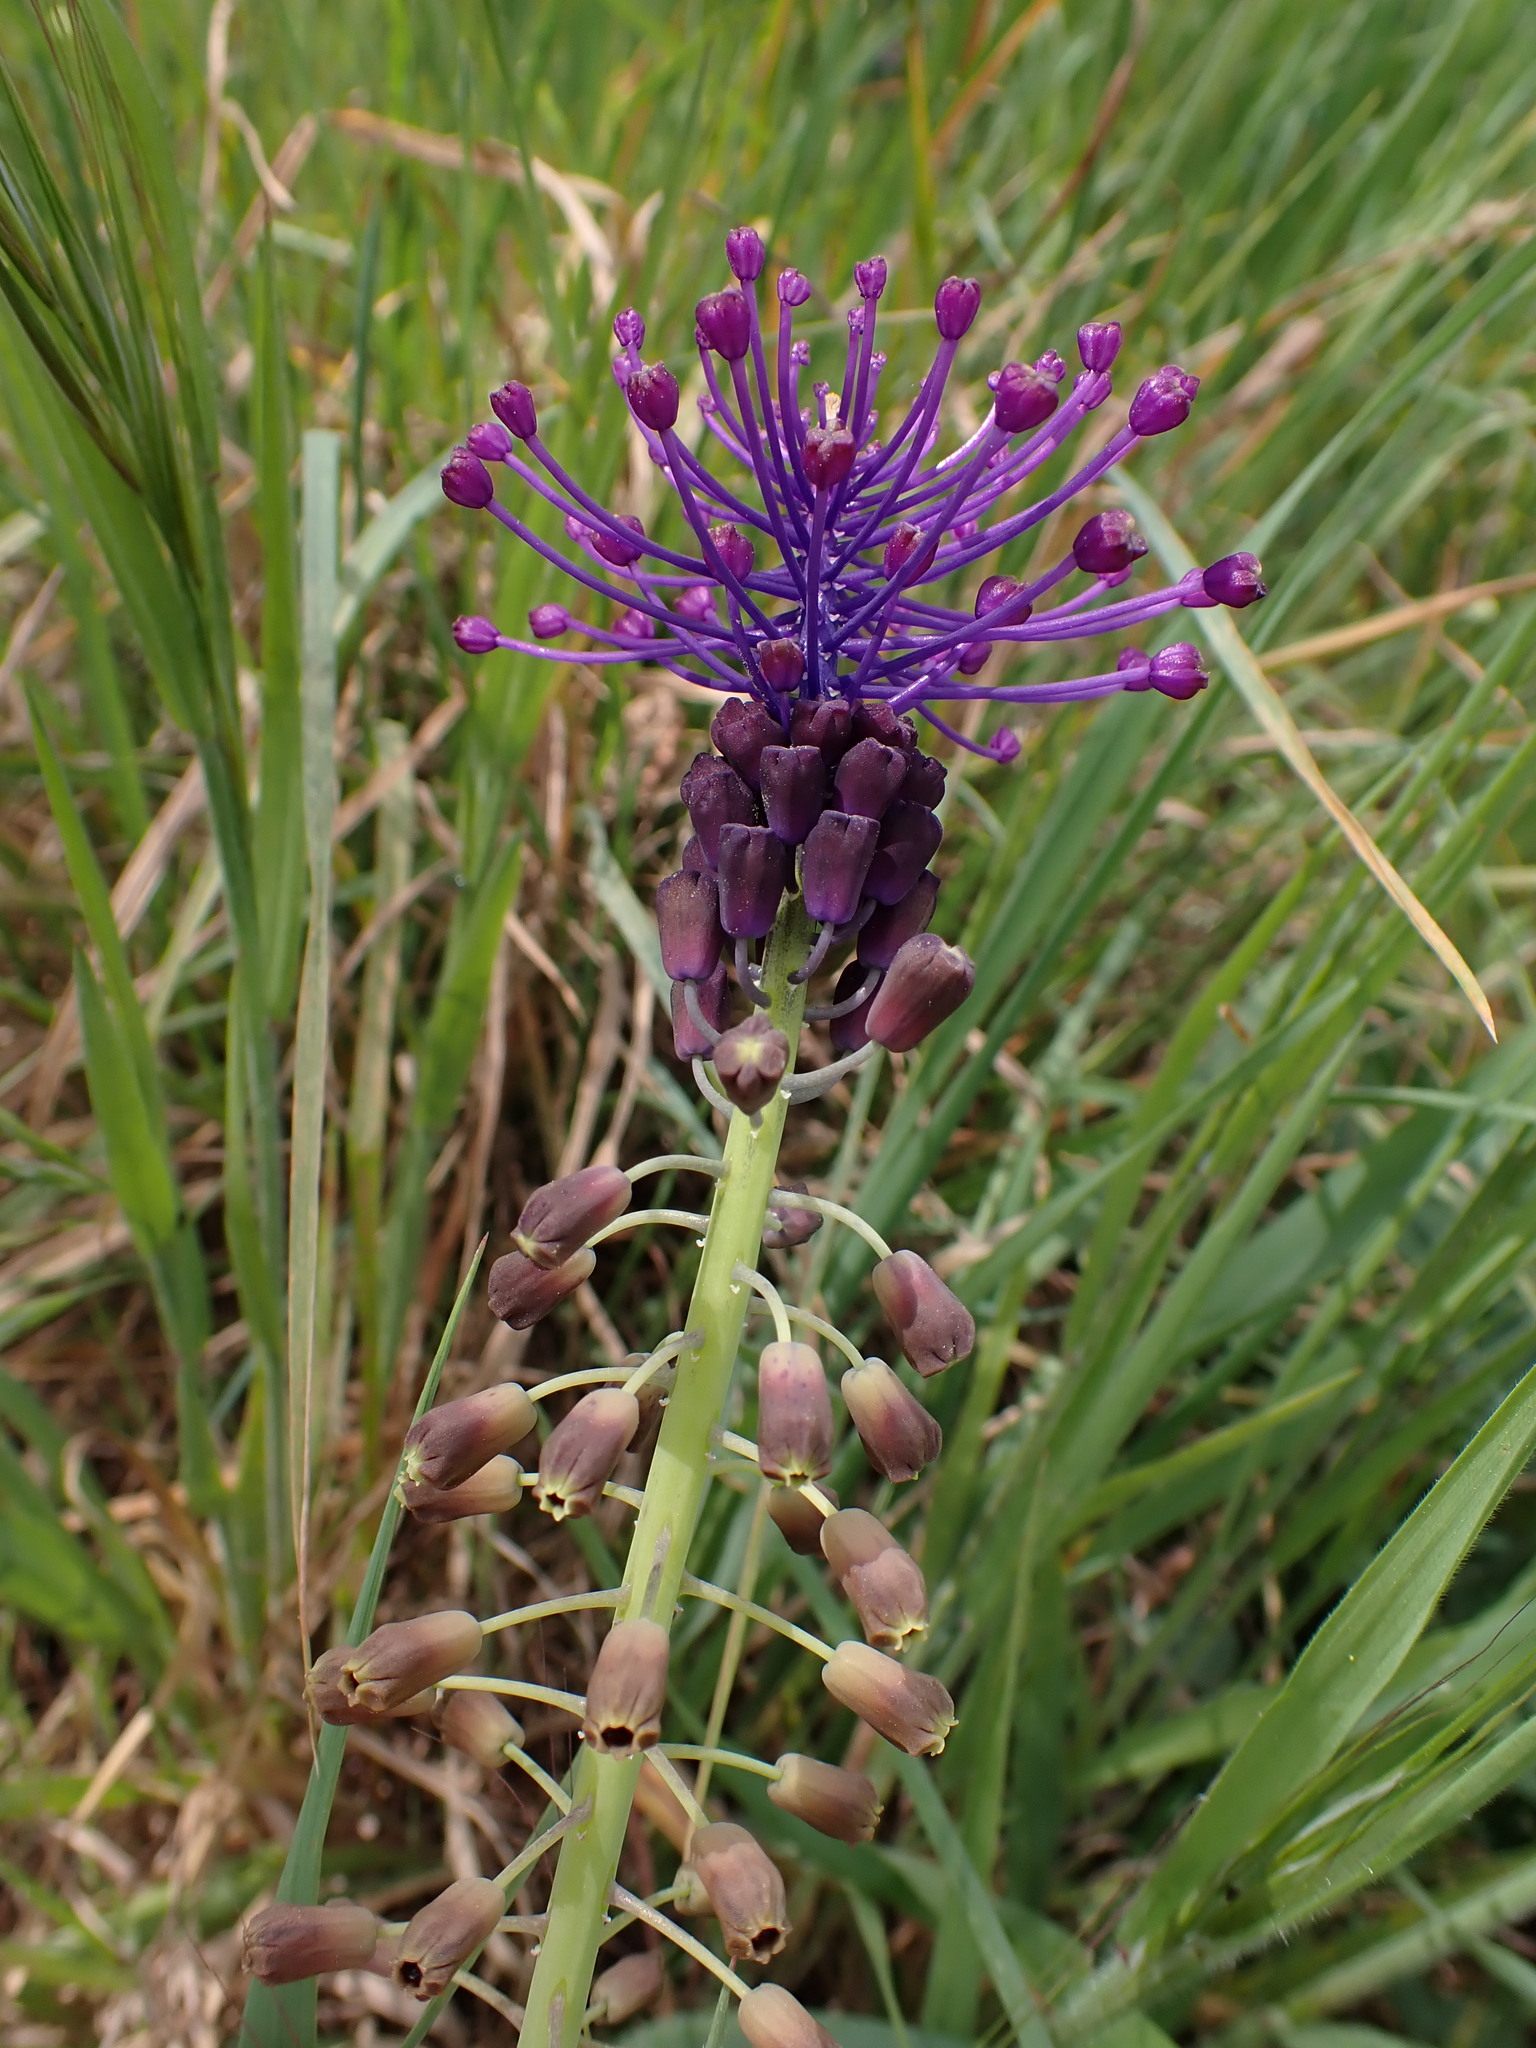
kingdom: Plantae
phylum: Tracheophyta
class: Liliopsida
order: Asparagales
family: Asparagaceae
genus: Muscari
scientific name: Muscari comosum
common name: Tassel hyacinth
